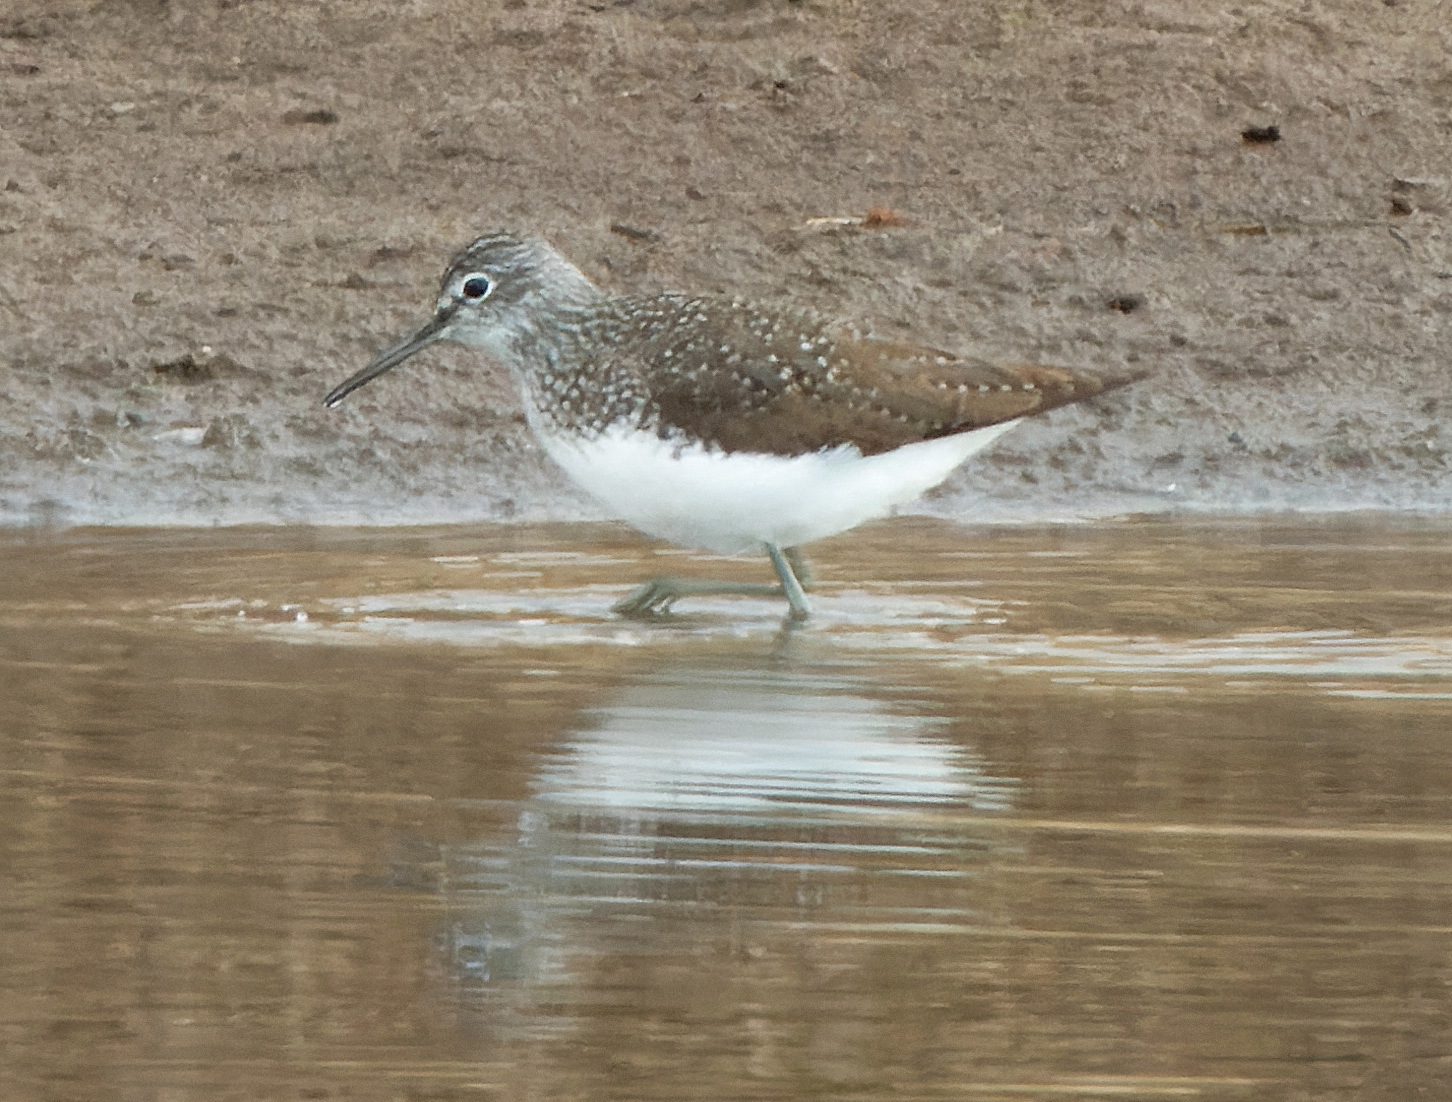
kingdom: Animalia
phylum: Chordata
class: Aves
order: Charadriiformes
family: Scolopacidae
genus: Tringa
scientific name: Tringa ochropus
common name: Green sandpiper
